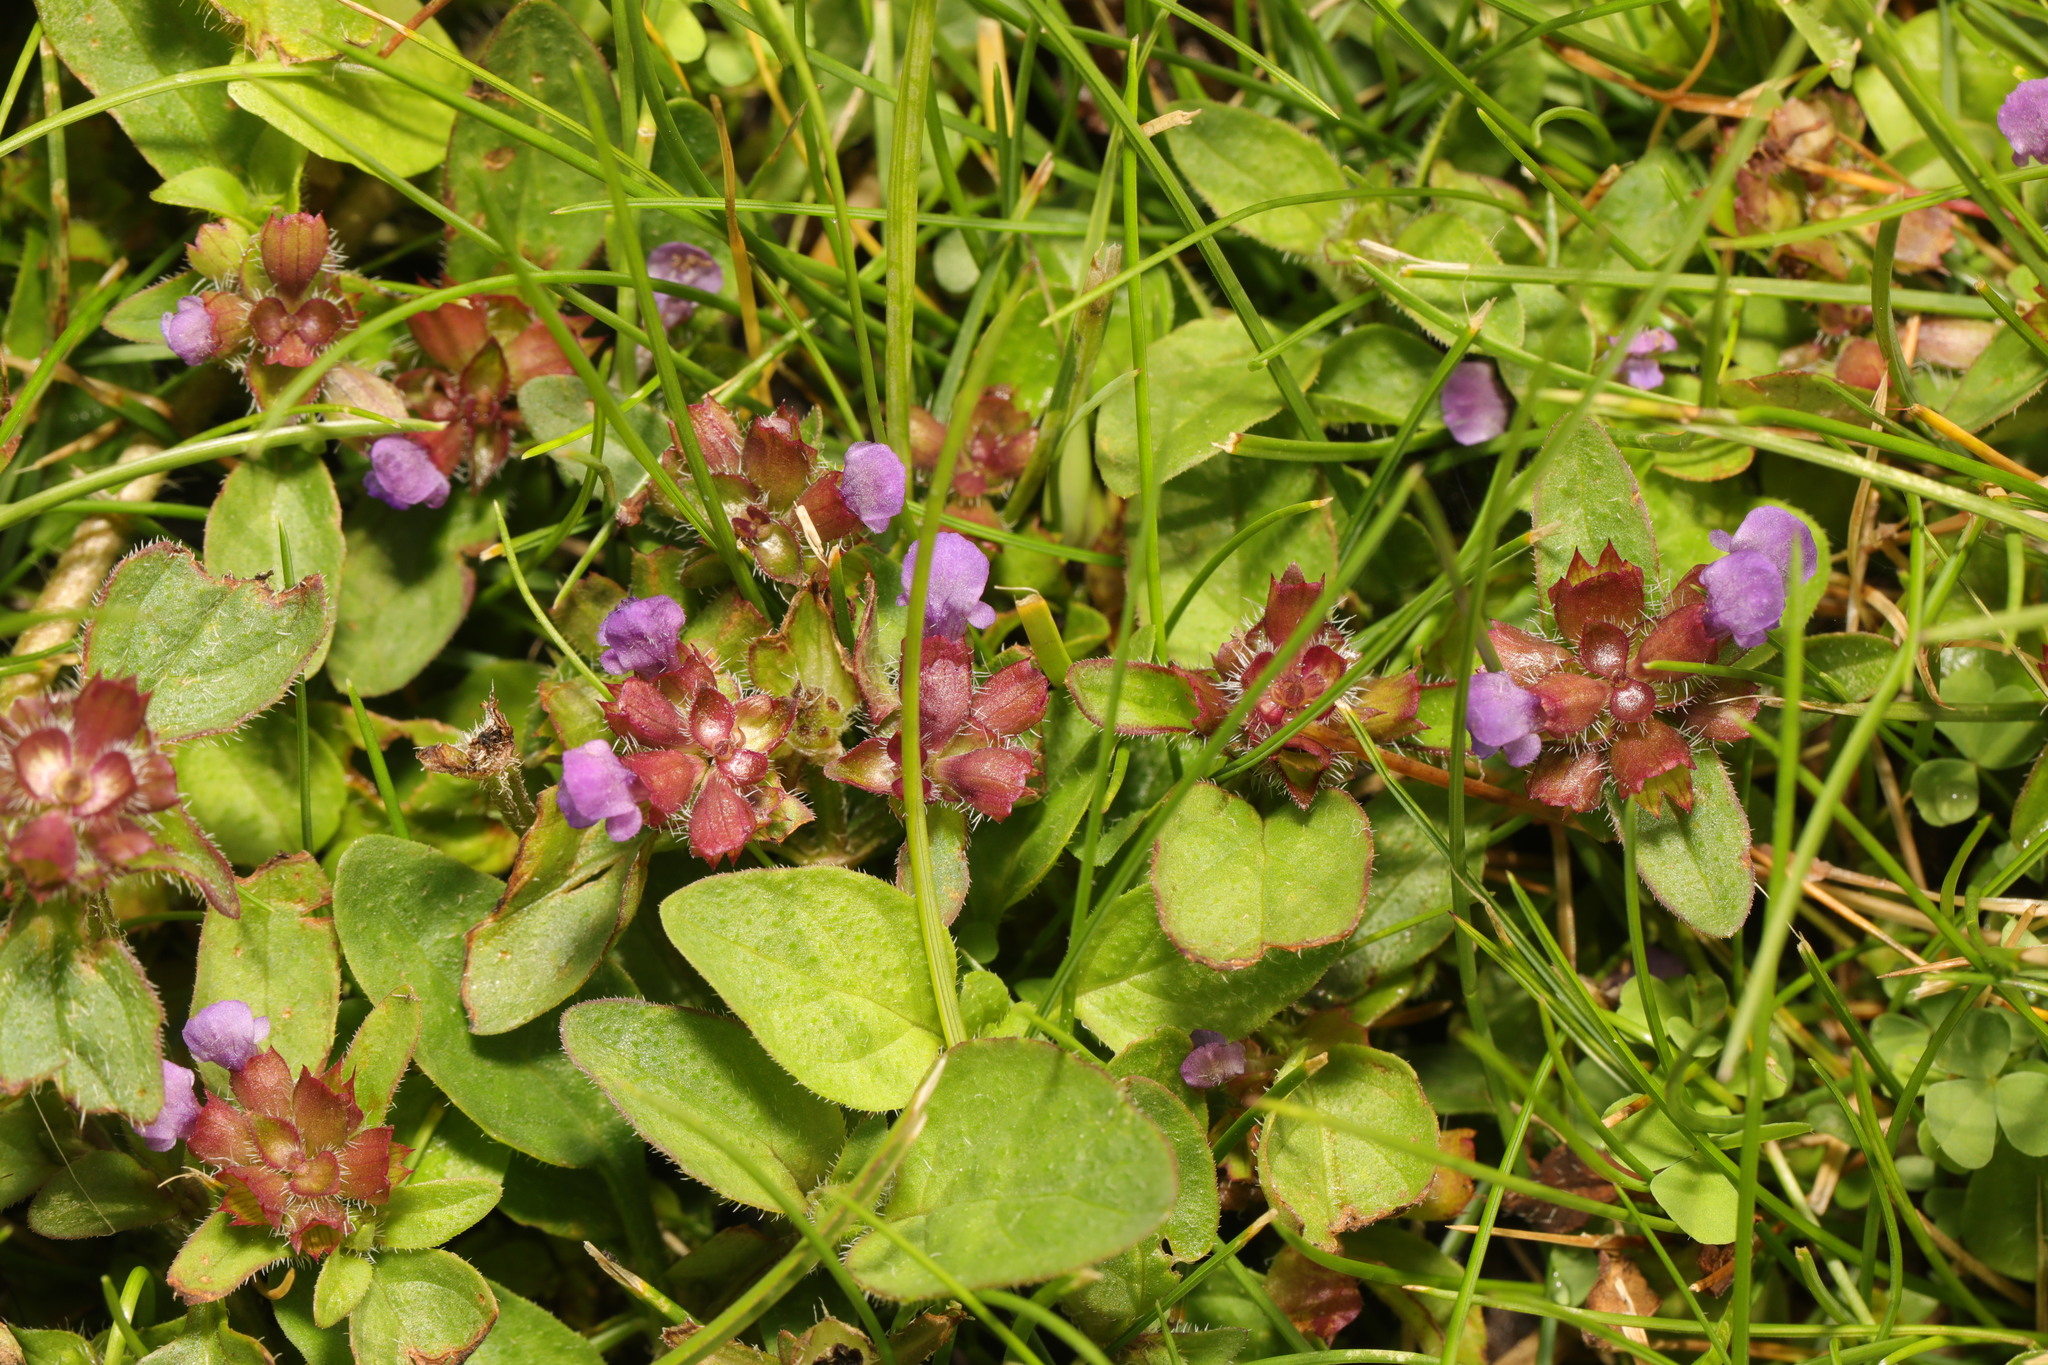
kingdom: Plantae
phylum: Tracheophyta
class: Magnoliopsida
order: Lamiales
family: Lamiaceae
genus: Prunella
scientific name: Prunella vulgaris
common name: Heal-all
